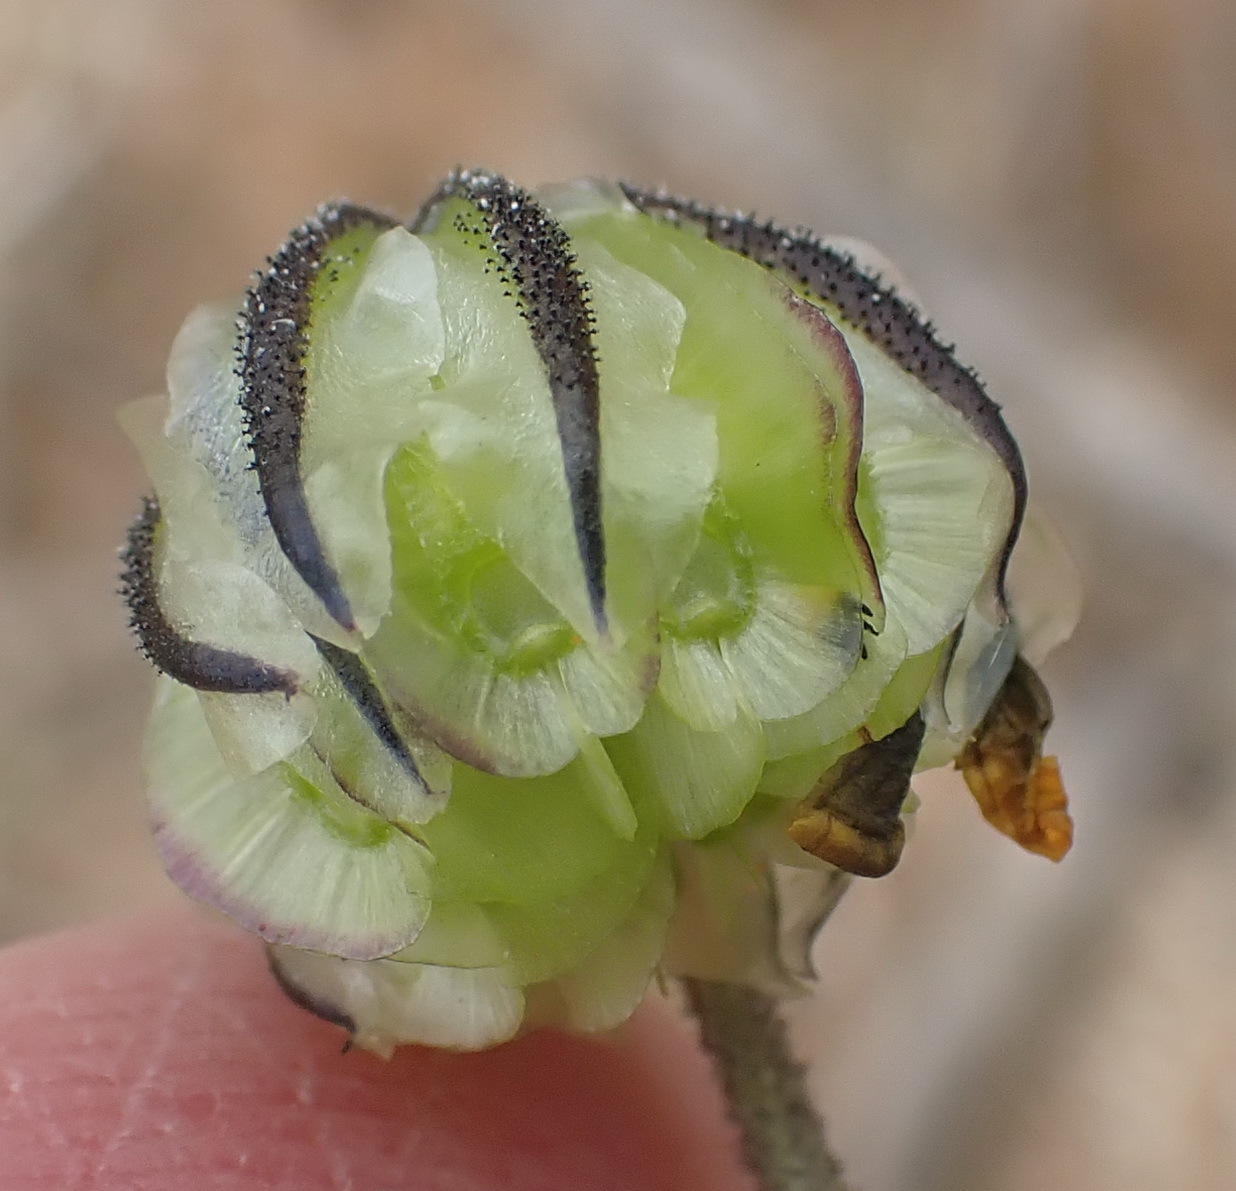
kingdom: Plantae
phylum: Tracheophyta
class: Magnoliopsida
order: Asterales
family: Asteraceae
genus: Osteospermum
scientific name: Osteospermum monstrosum
